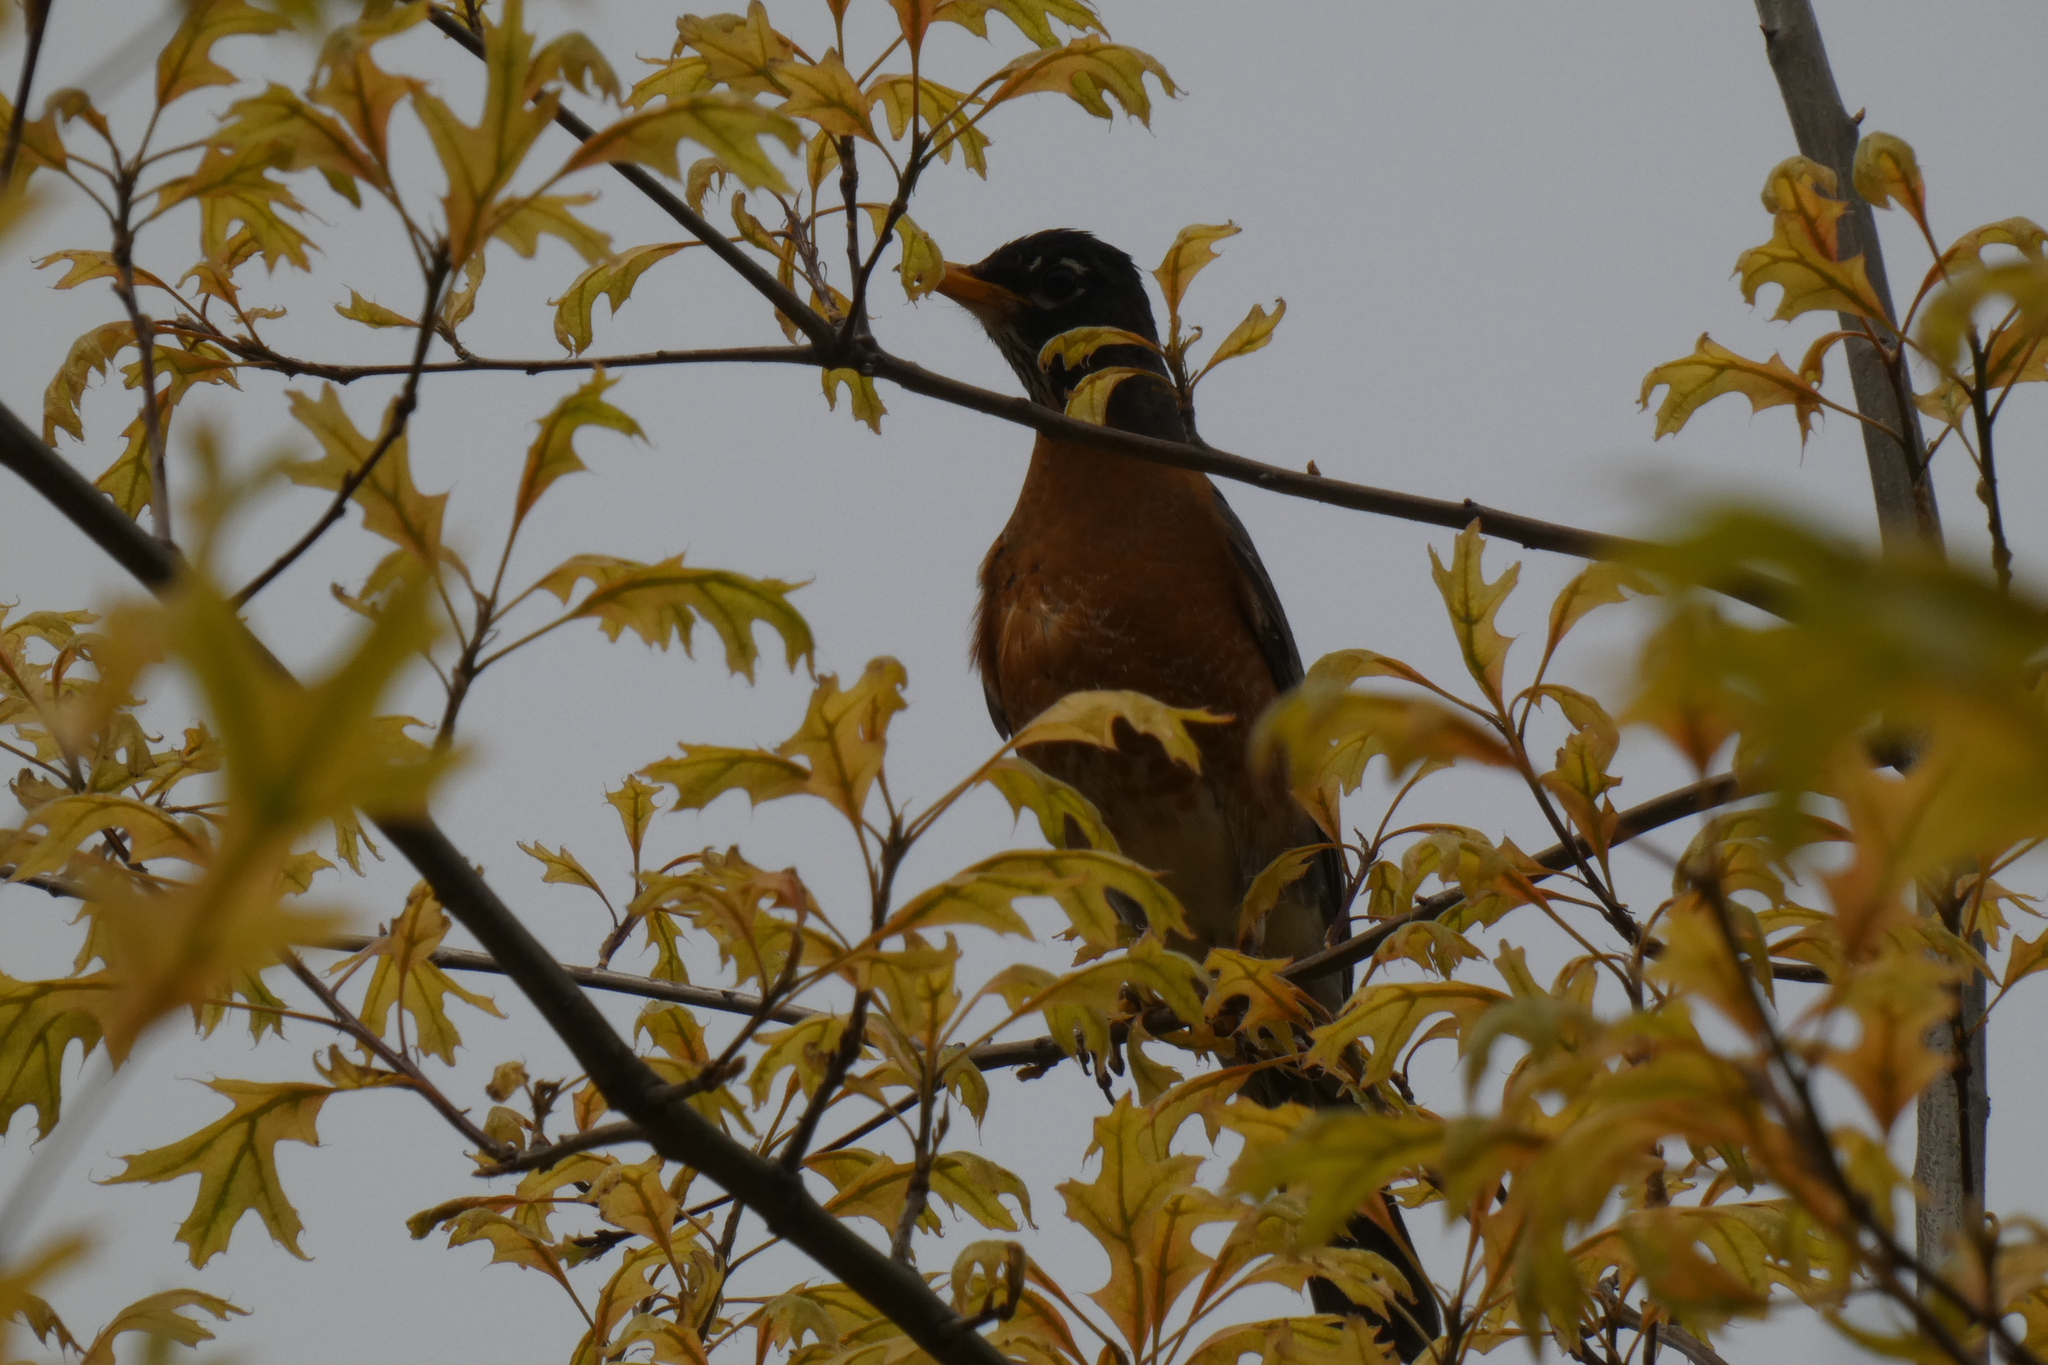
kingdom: Animalia
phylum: Chordata
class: Aves
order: Passeriformes
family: Turdidae
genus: Turdus
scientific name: Turdus migratorius
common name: American robin
